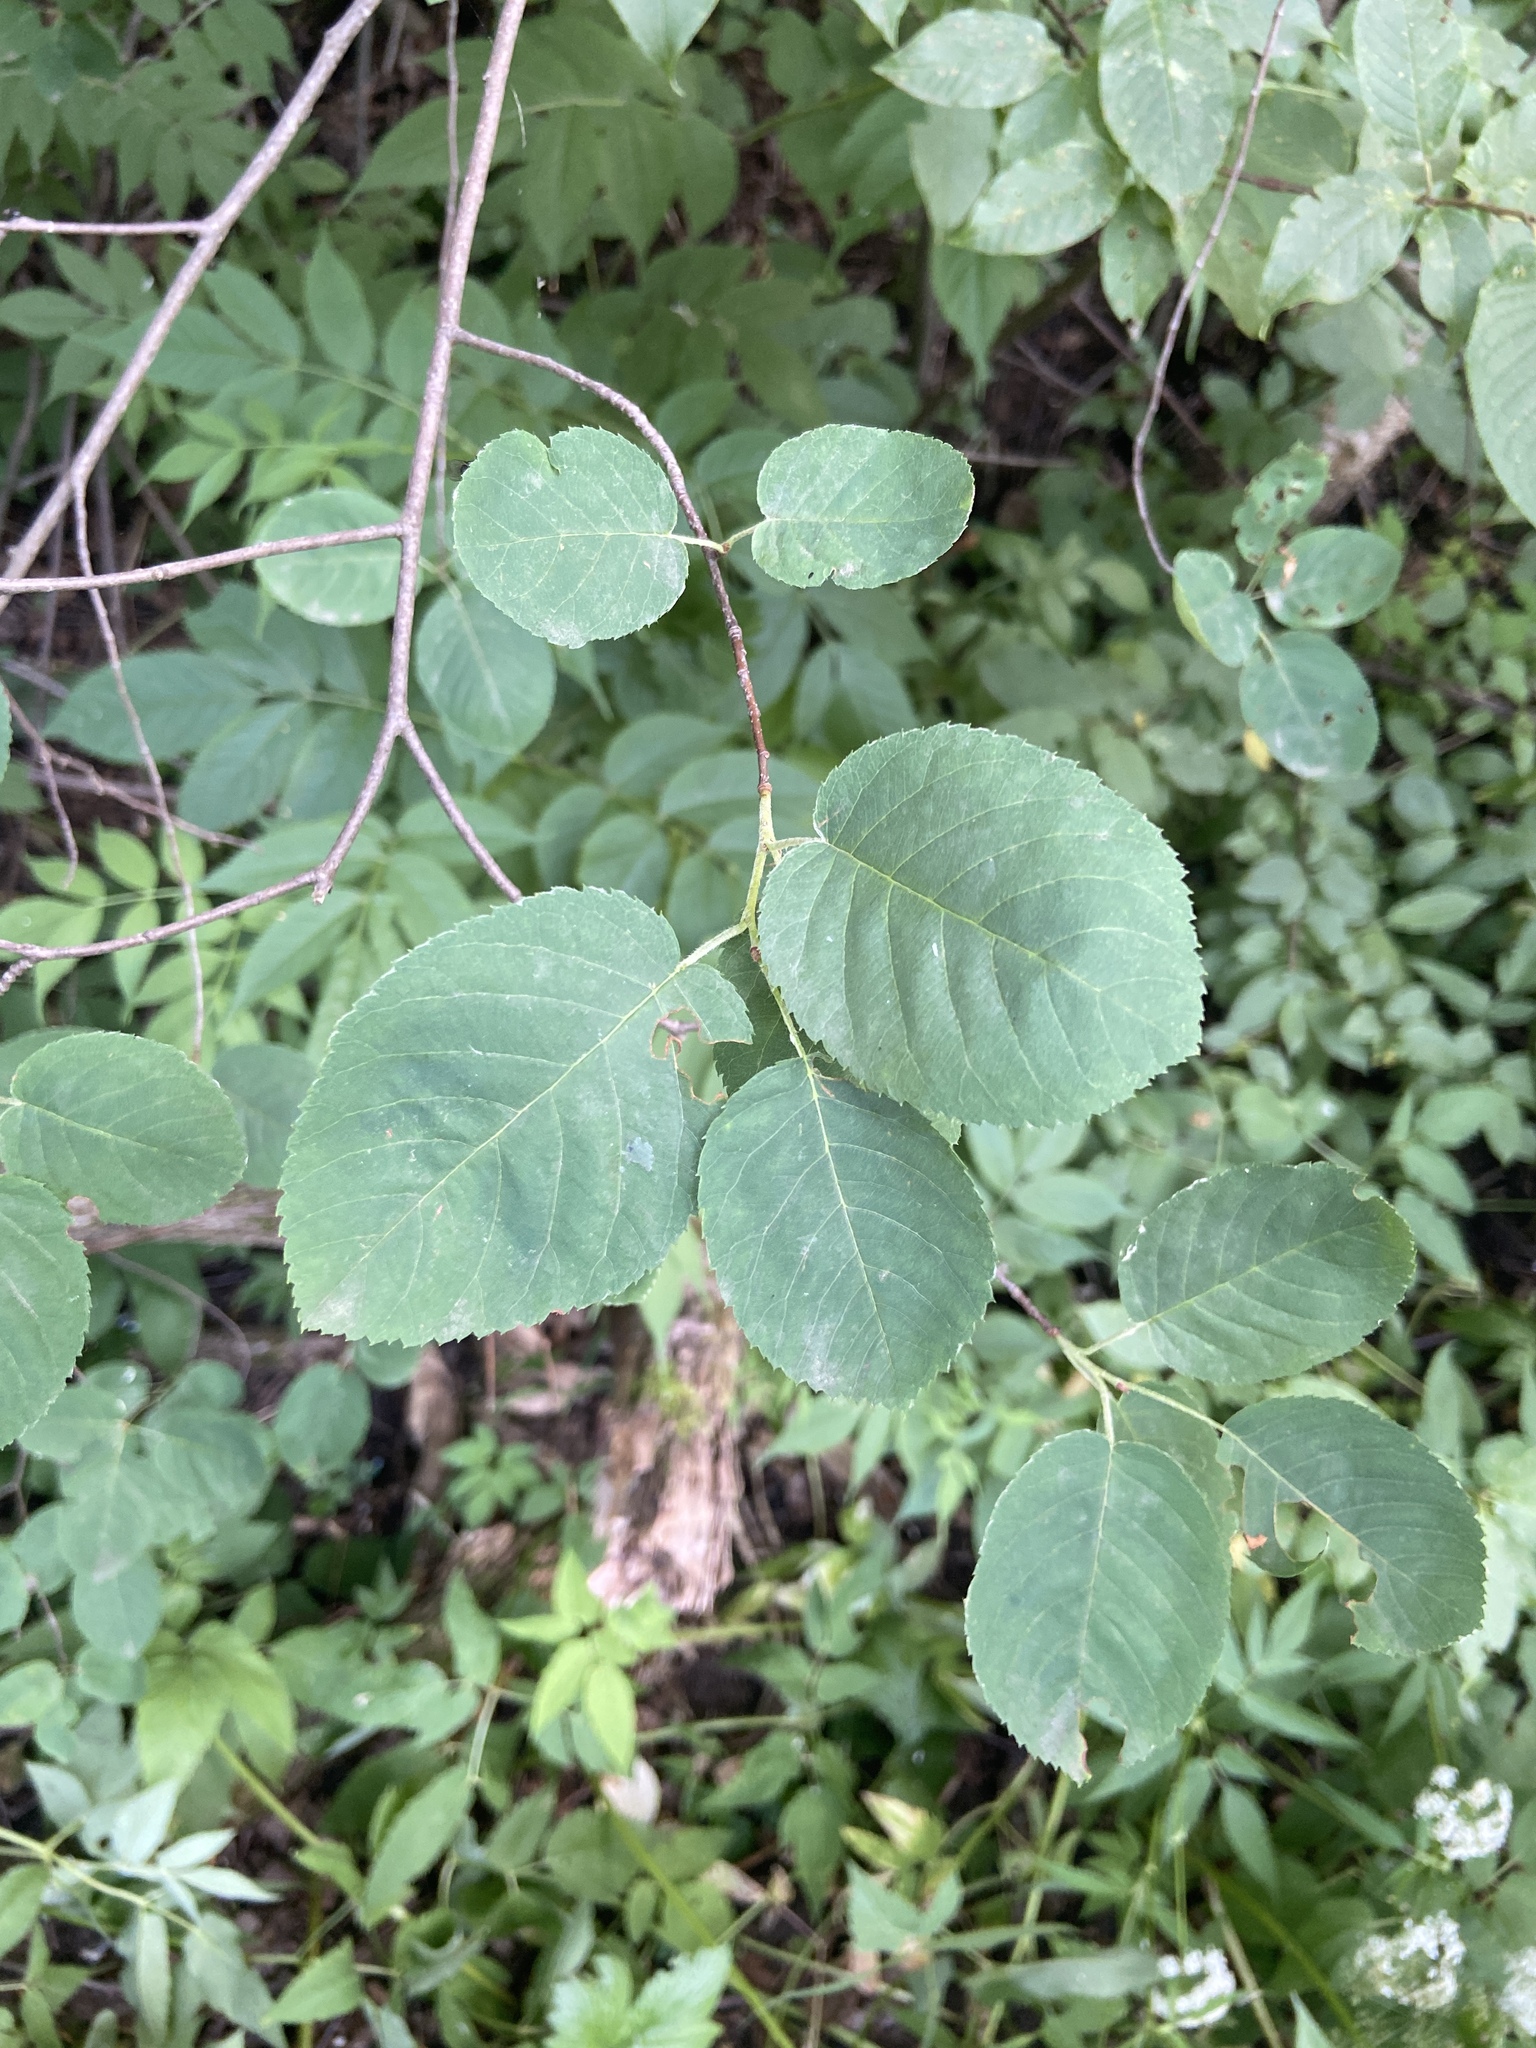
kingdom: Plantae
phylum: Tracheophyta
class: Magnoliopsida
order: Rosales
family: Rosaceae
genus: Amelanchier
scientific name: Amelanchier
